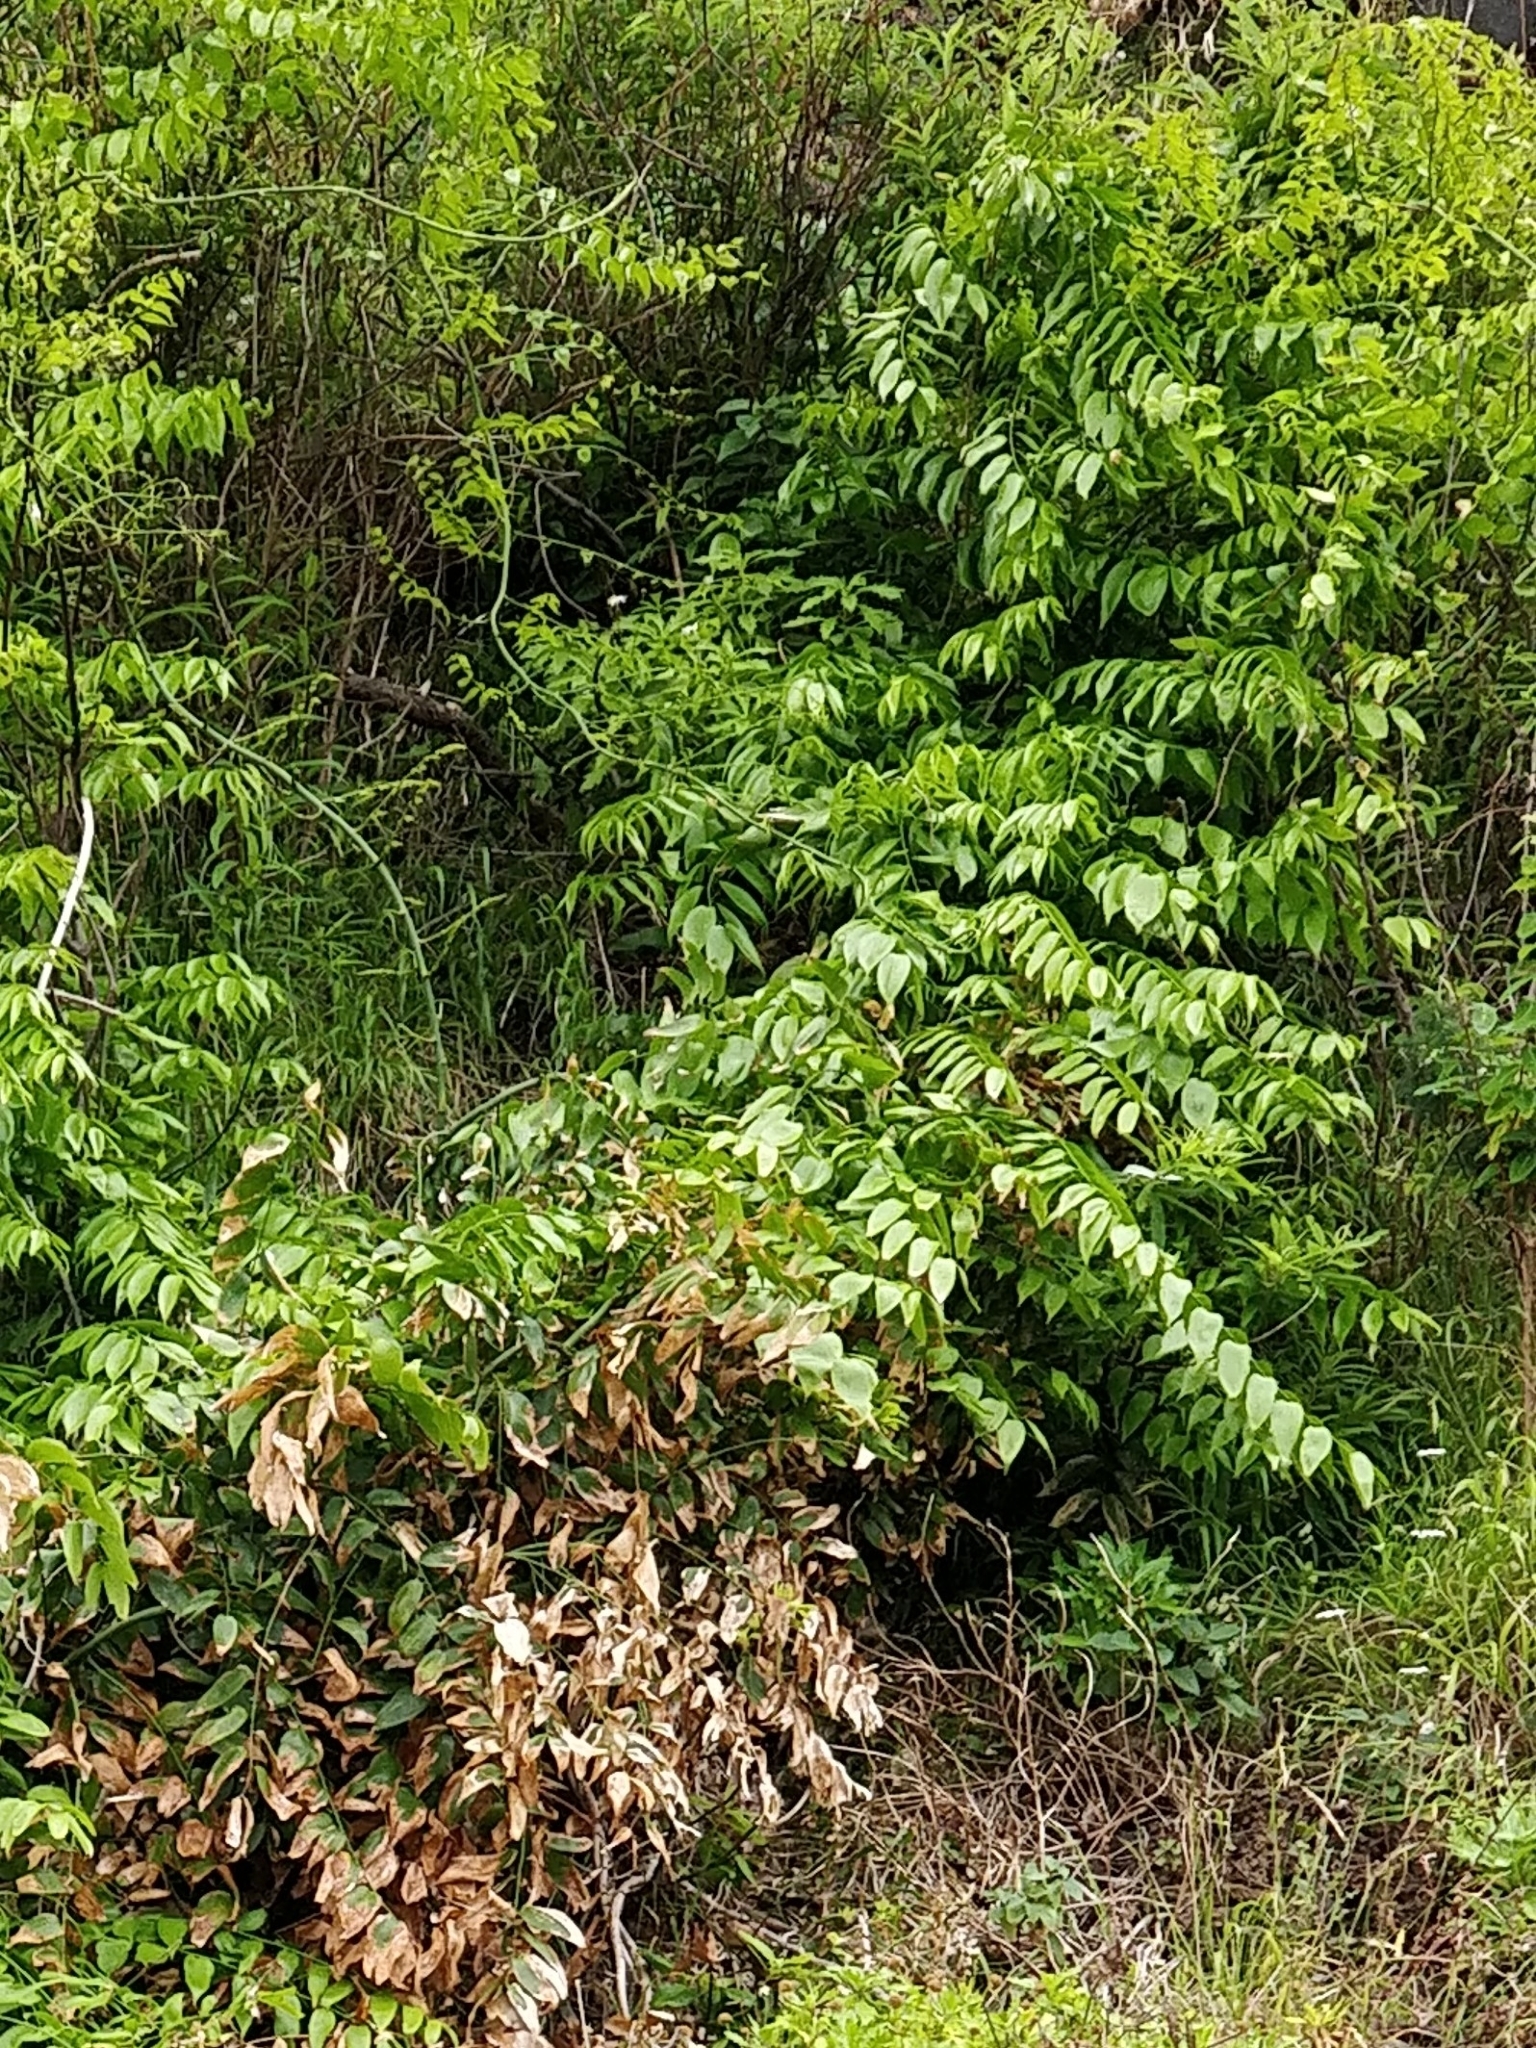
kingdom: Plantae
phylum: Tracheophyta
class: Liliopsida
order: Asparagales
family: Asparagaceae
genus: Semele
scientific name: Semele androgyna
